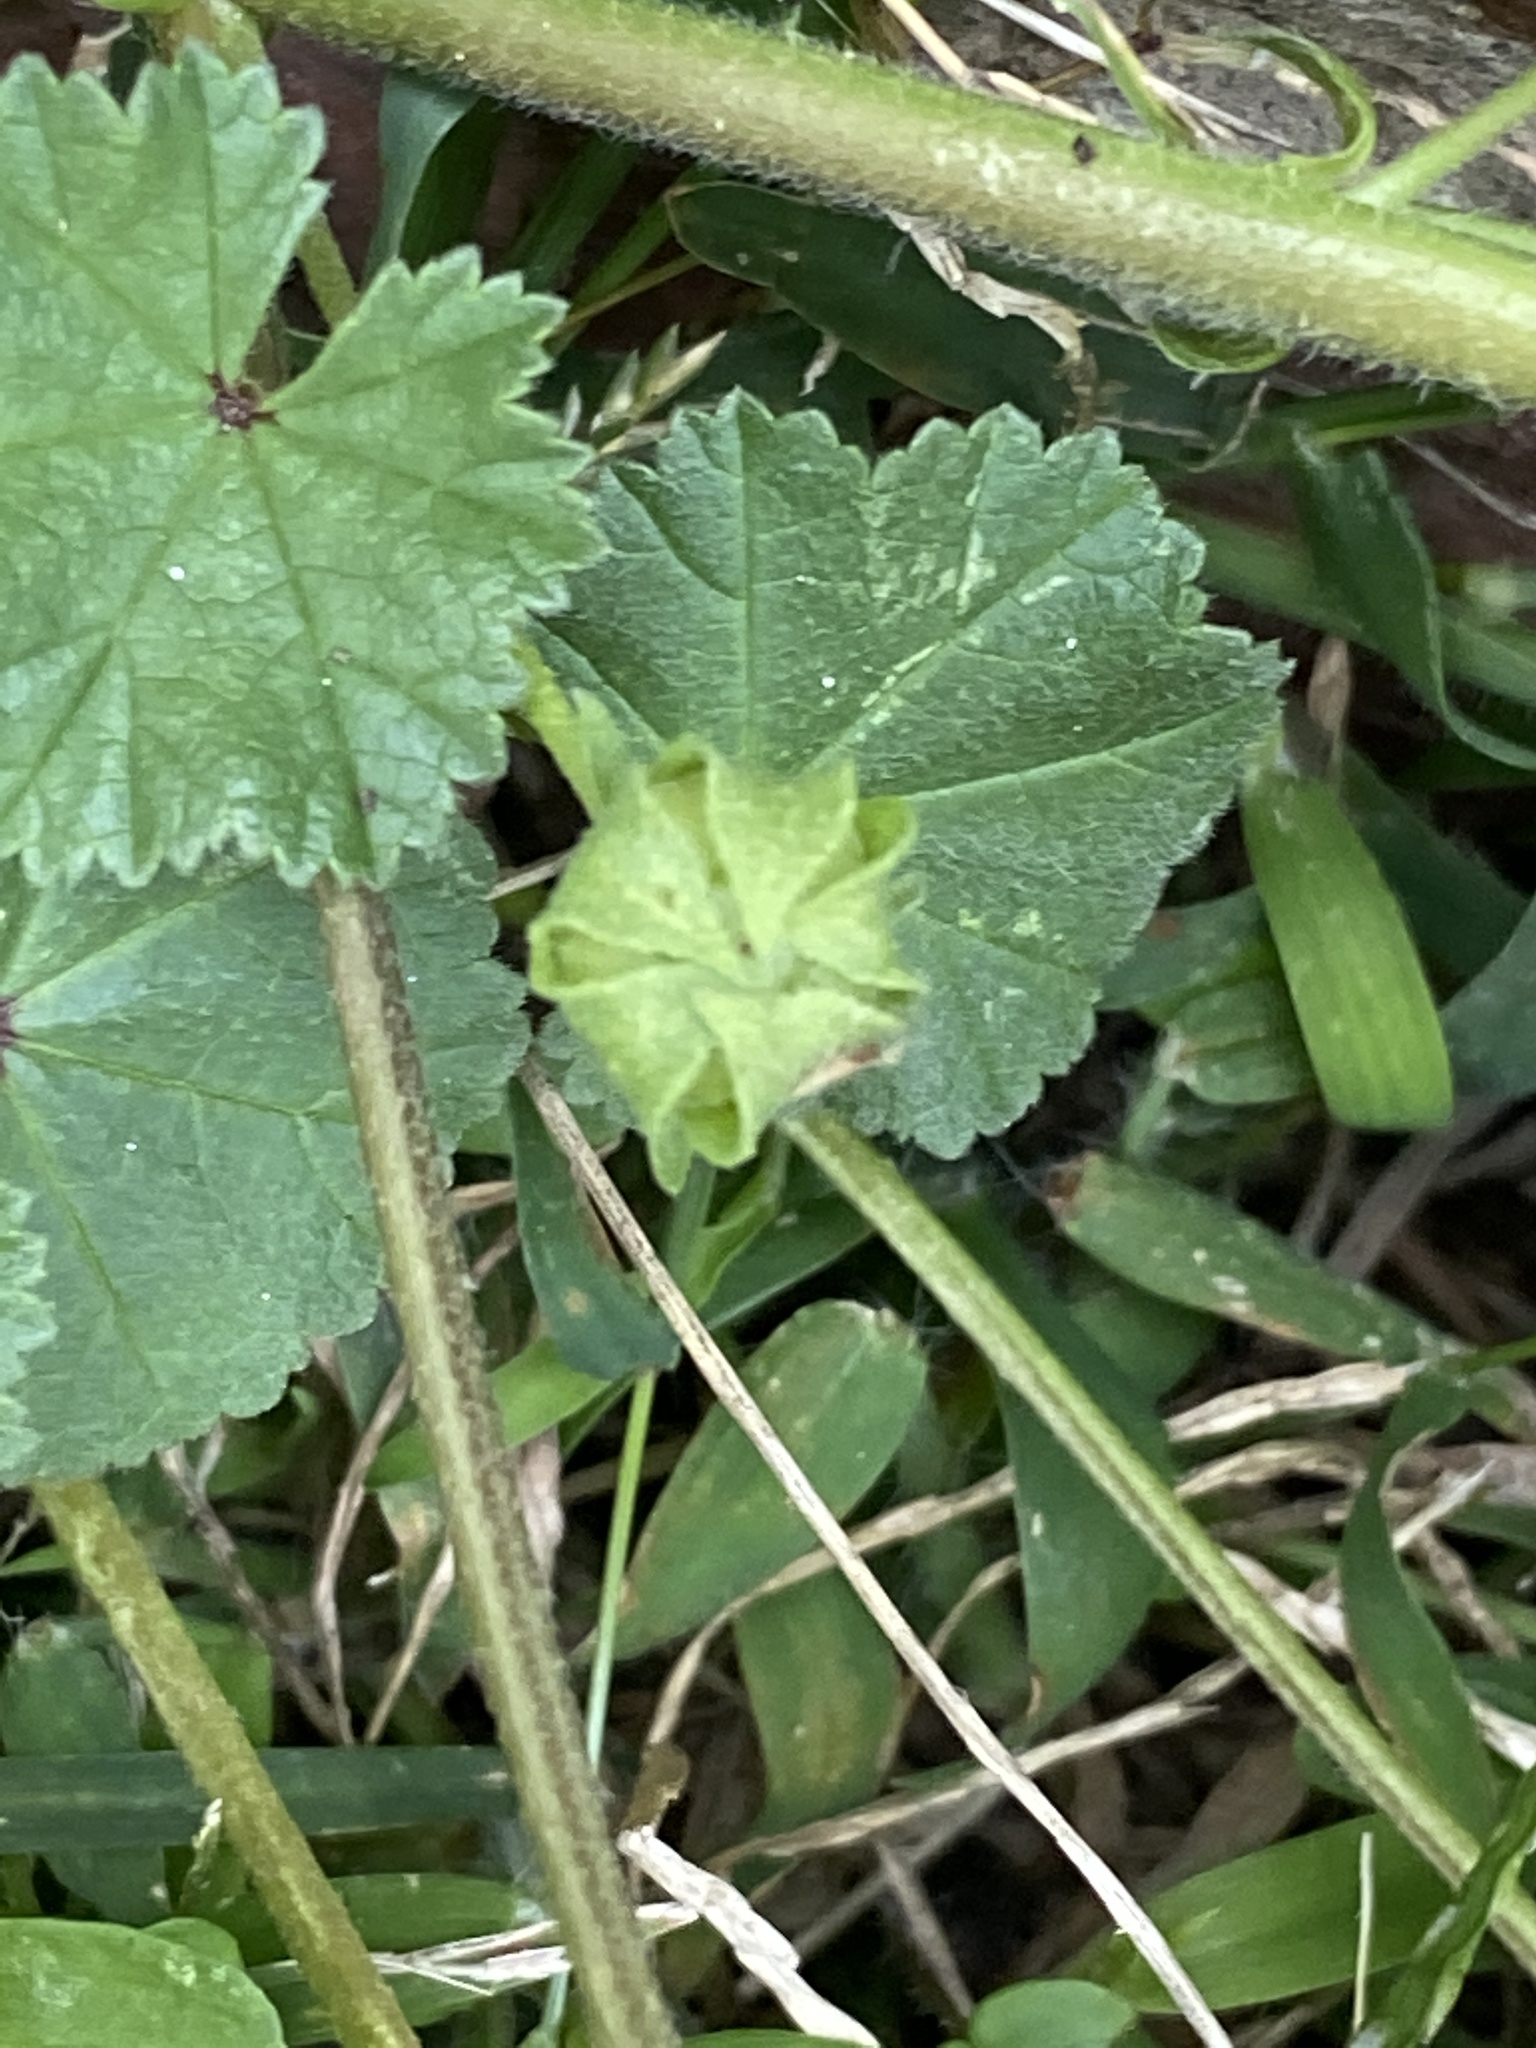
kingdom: Plantae
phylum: Tracheophyta
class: Magnoliopsida
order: Malvales
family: Malvaceae
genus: Malva
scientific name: Malva neglecta
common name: Common mallow
